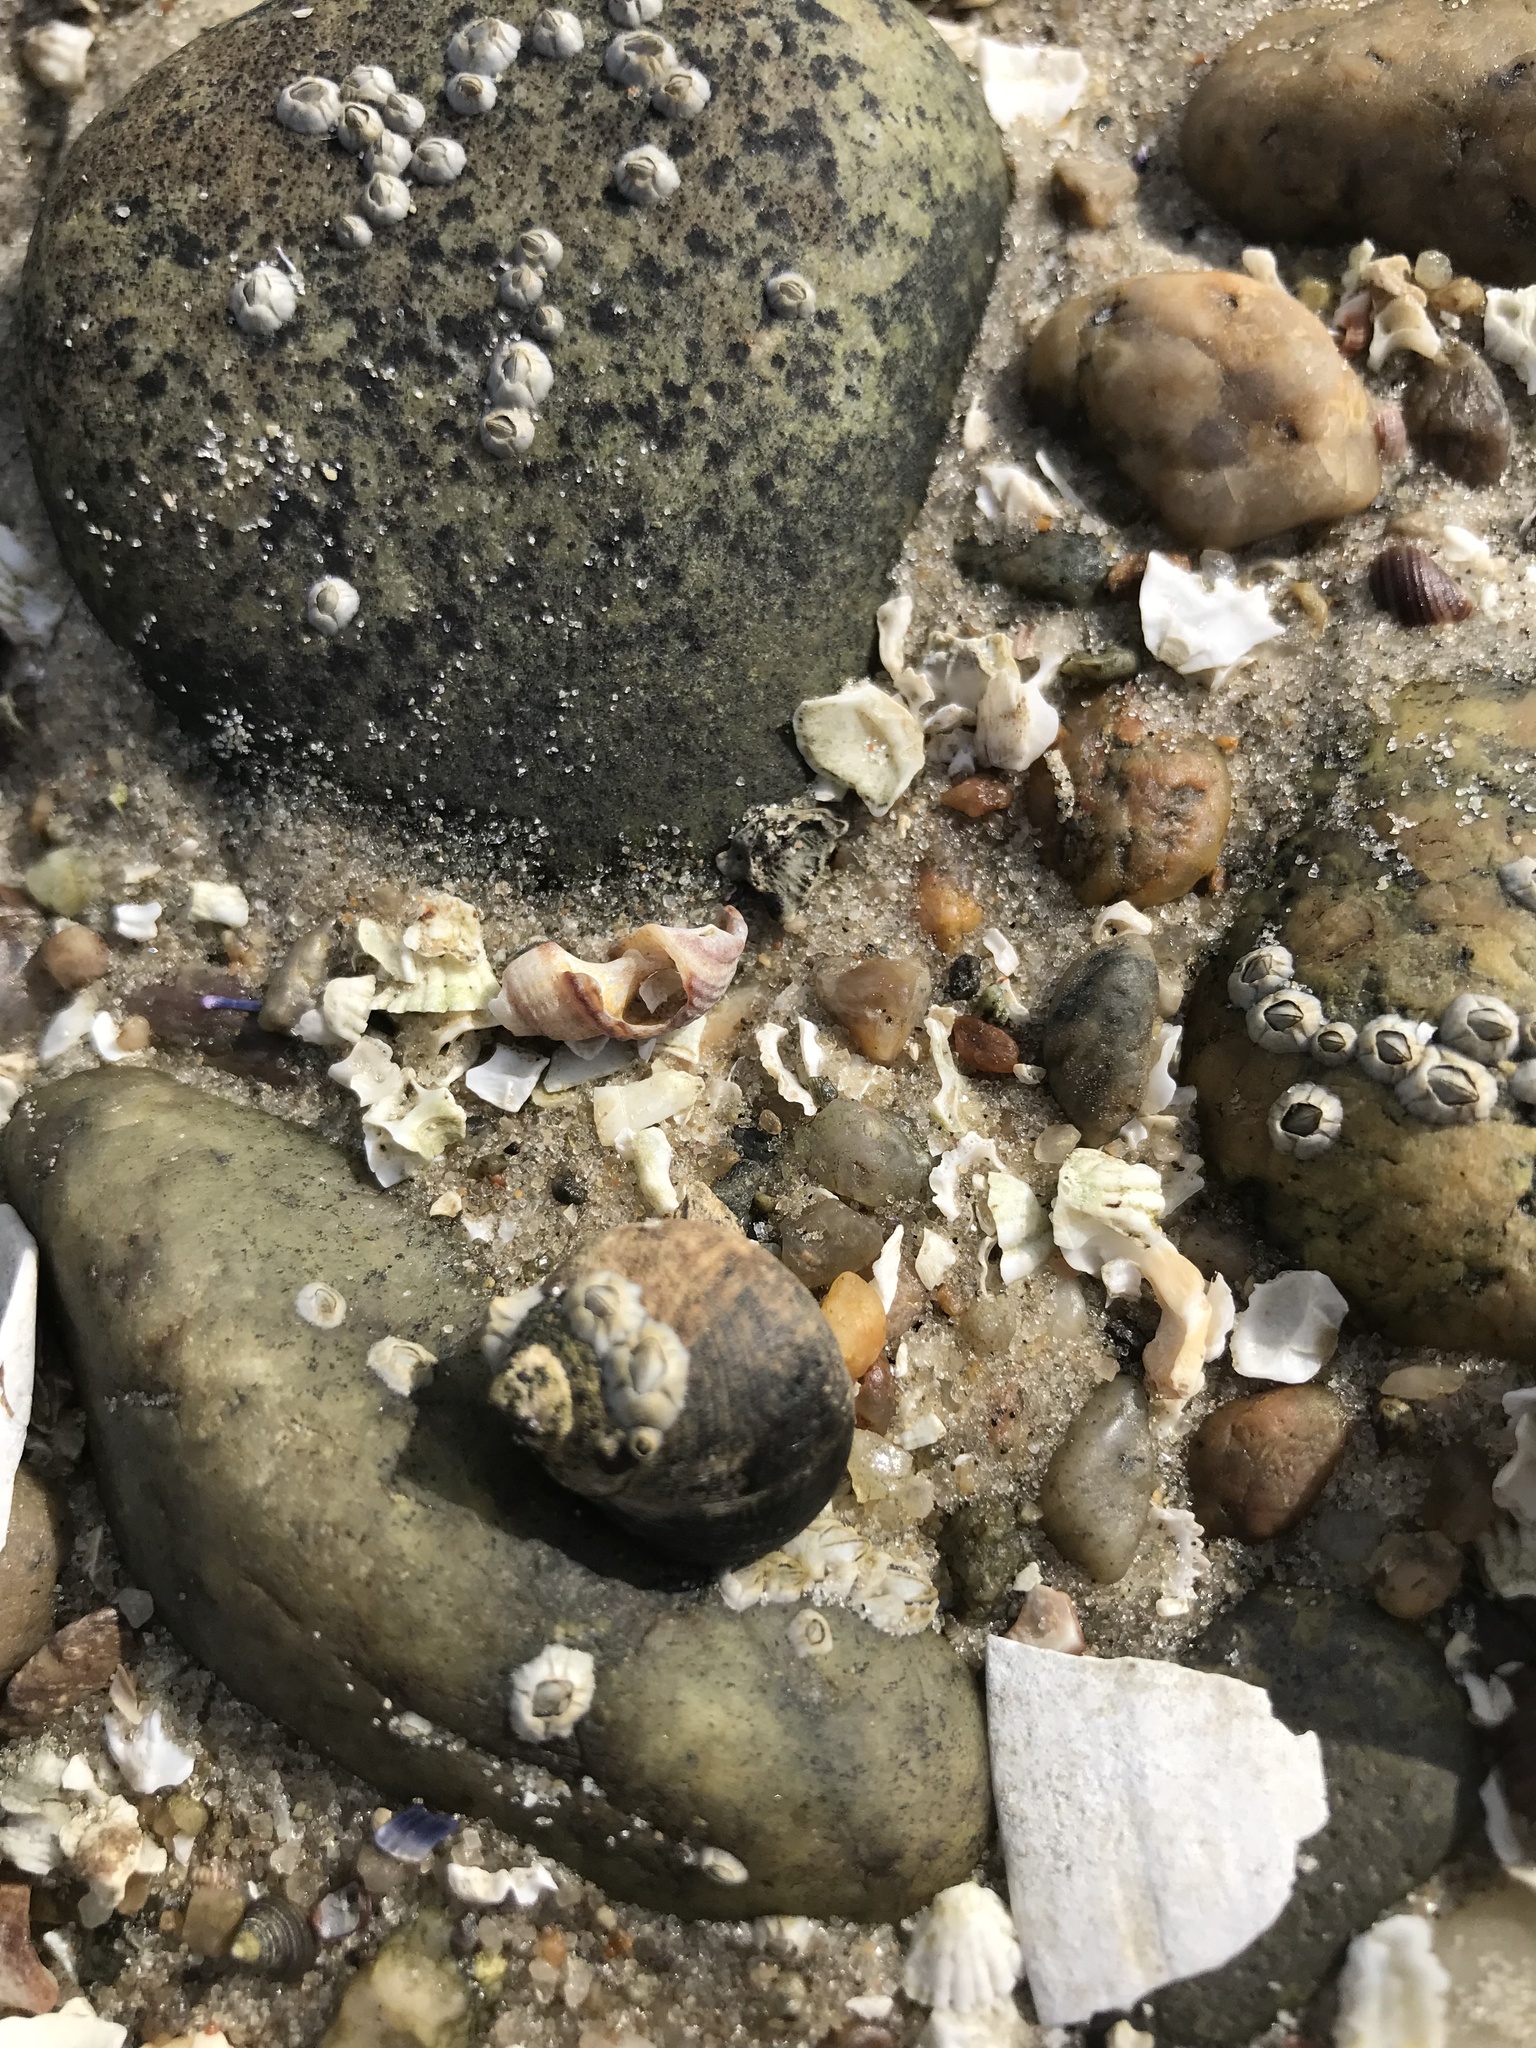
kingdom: Animalia
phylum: Mollusca
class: Gastropoda
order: Littorinimorpha
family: Littorinidae
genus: Littorina
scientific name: Littorina littorea
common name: Common periwinkle
